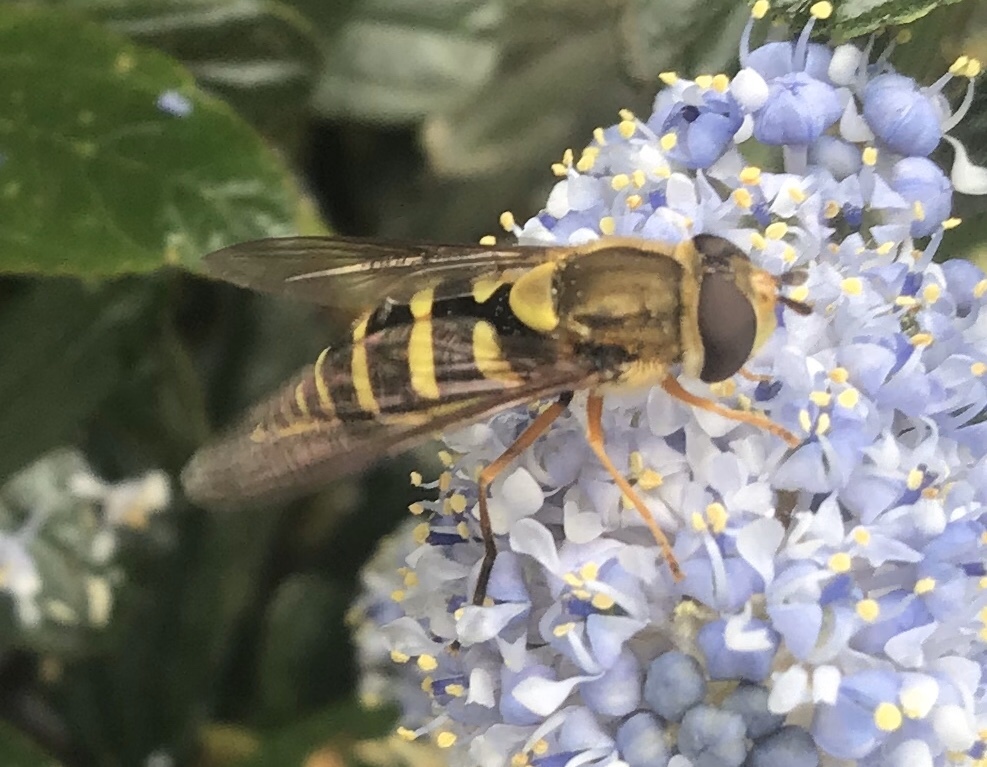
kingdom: Animalia
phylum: Arthropoda
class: Insecta
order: Diptera
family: Syrphidae
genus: Syrphus
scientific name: Syrphus opinator
